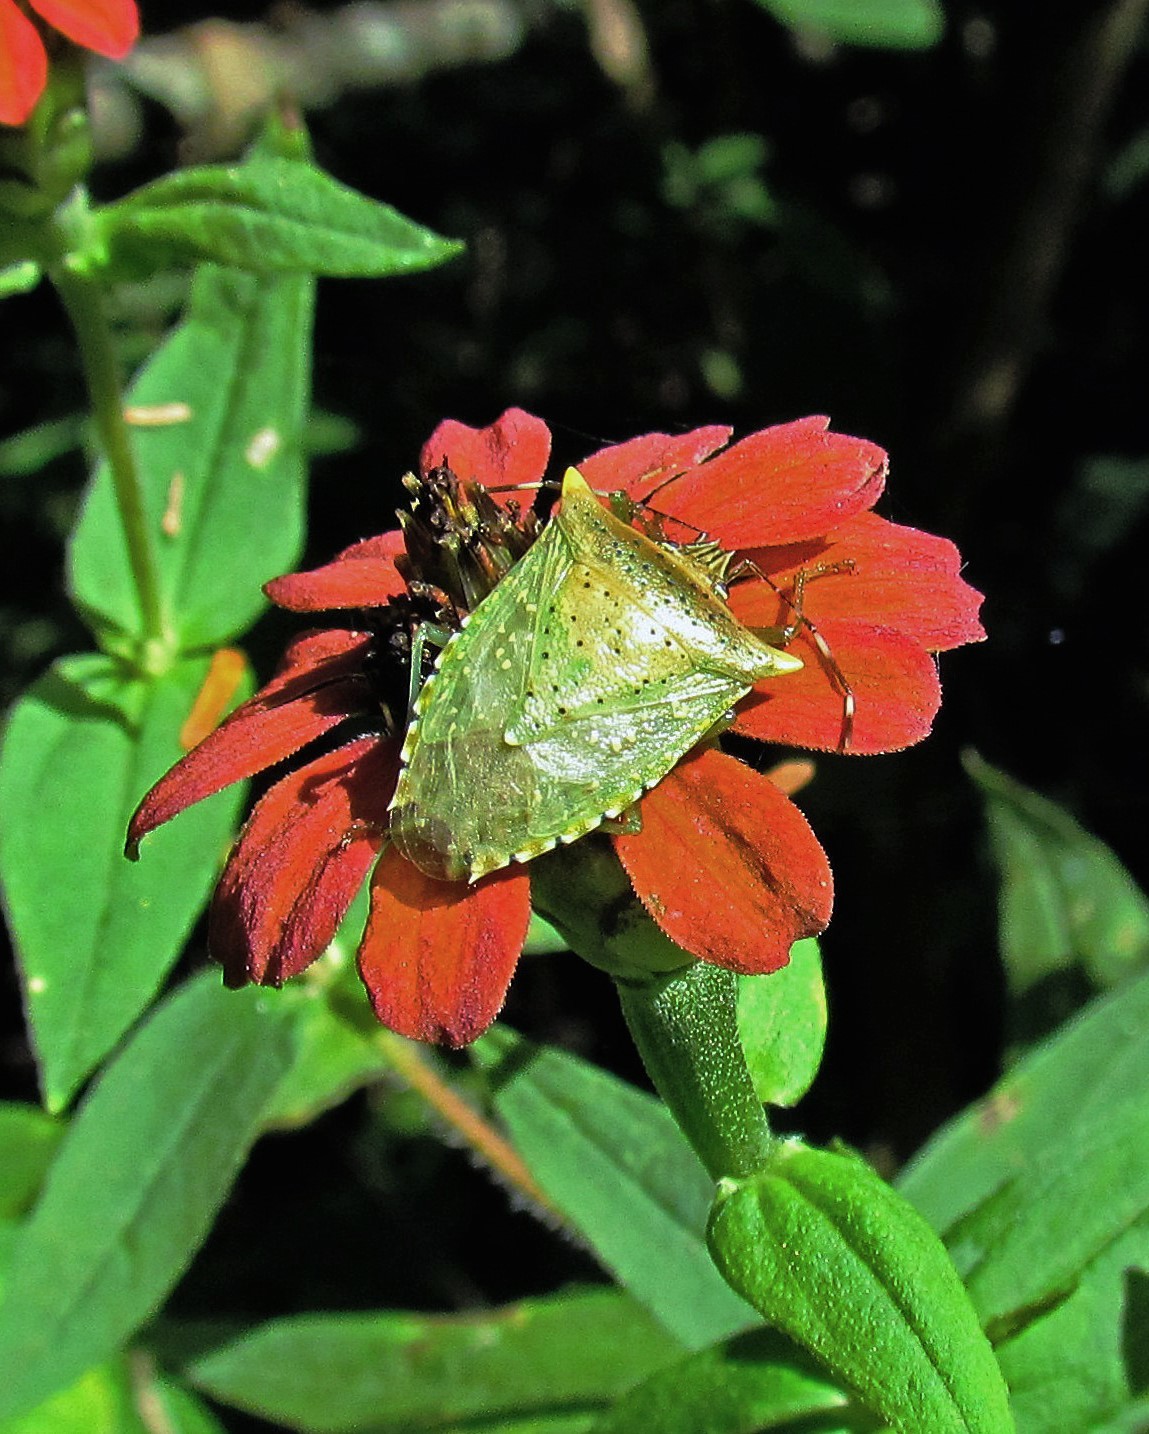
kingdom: Animalia
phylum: Arthropoda
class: Insecta
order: Hemiptera
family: Pentatomidae
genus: Arvelius
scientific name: Arvelius albopunctatus
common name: Tomato stink bug
